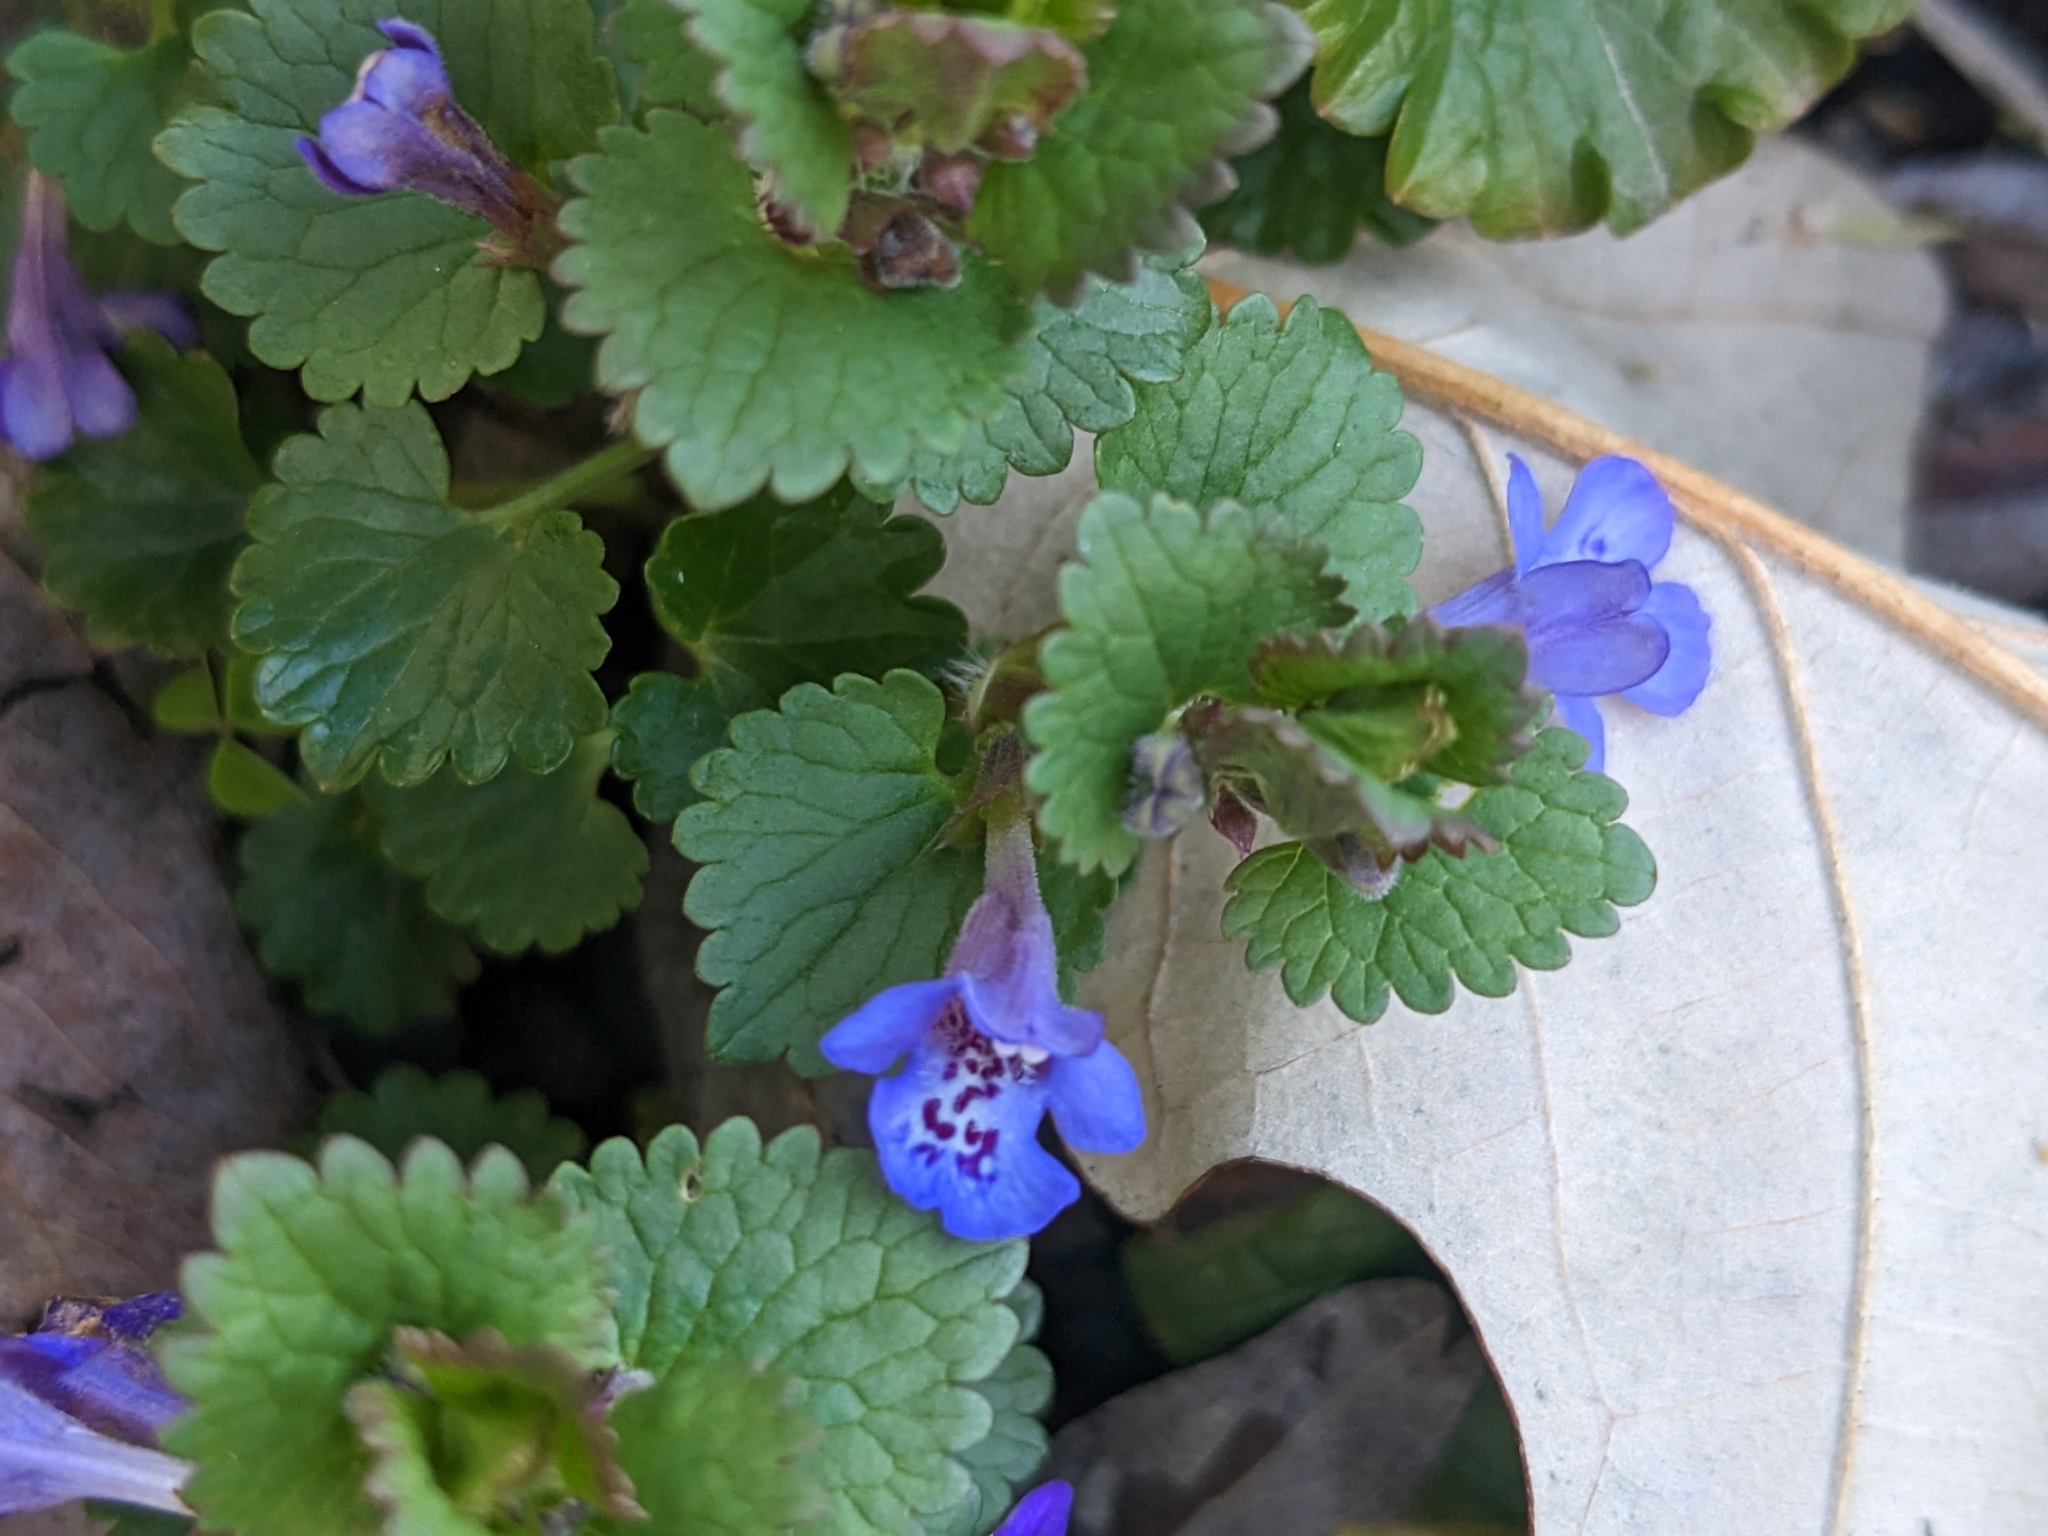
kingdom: Plantae
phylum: Tracheophyta
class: Magnoliopsida
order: Lamiales
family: Lamiaceae
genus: Glechoma
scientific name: Glechoma hederacea
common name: Ground ivy
